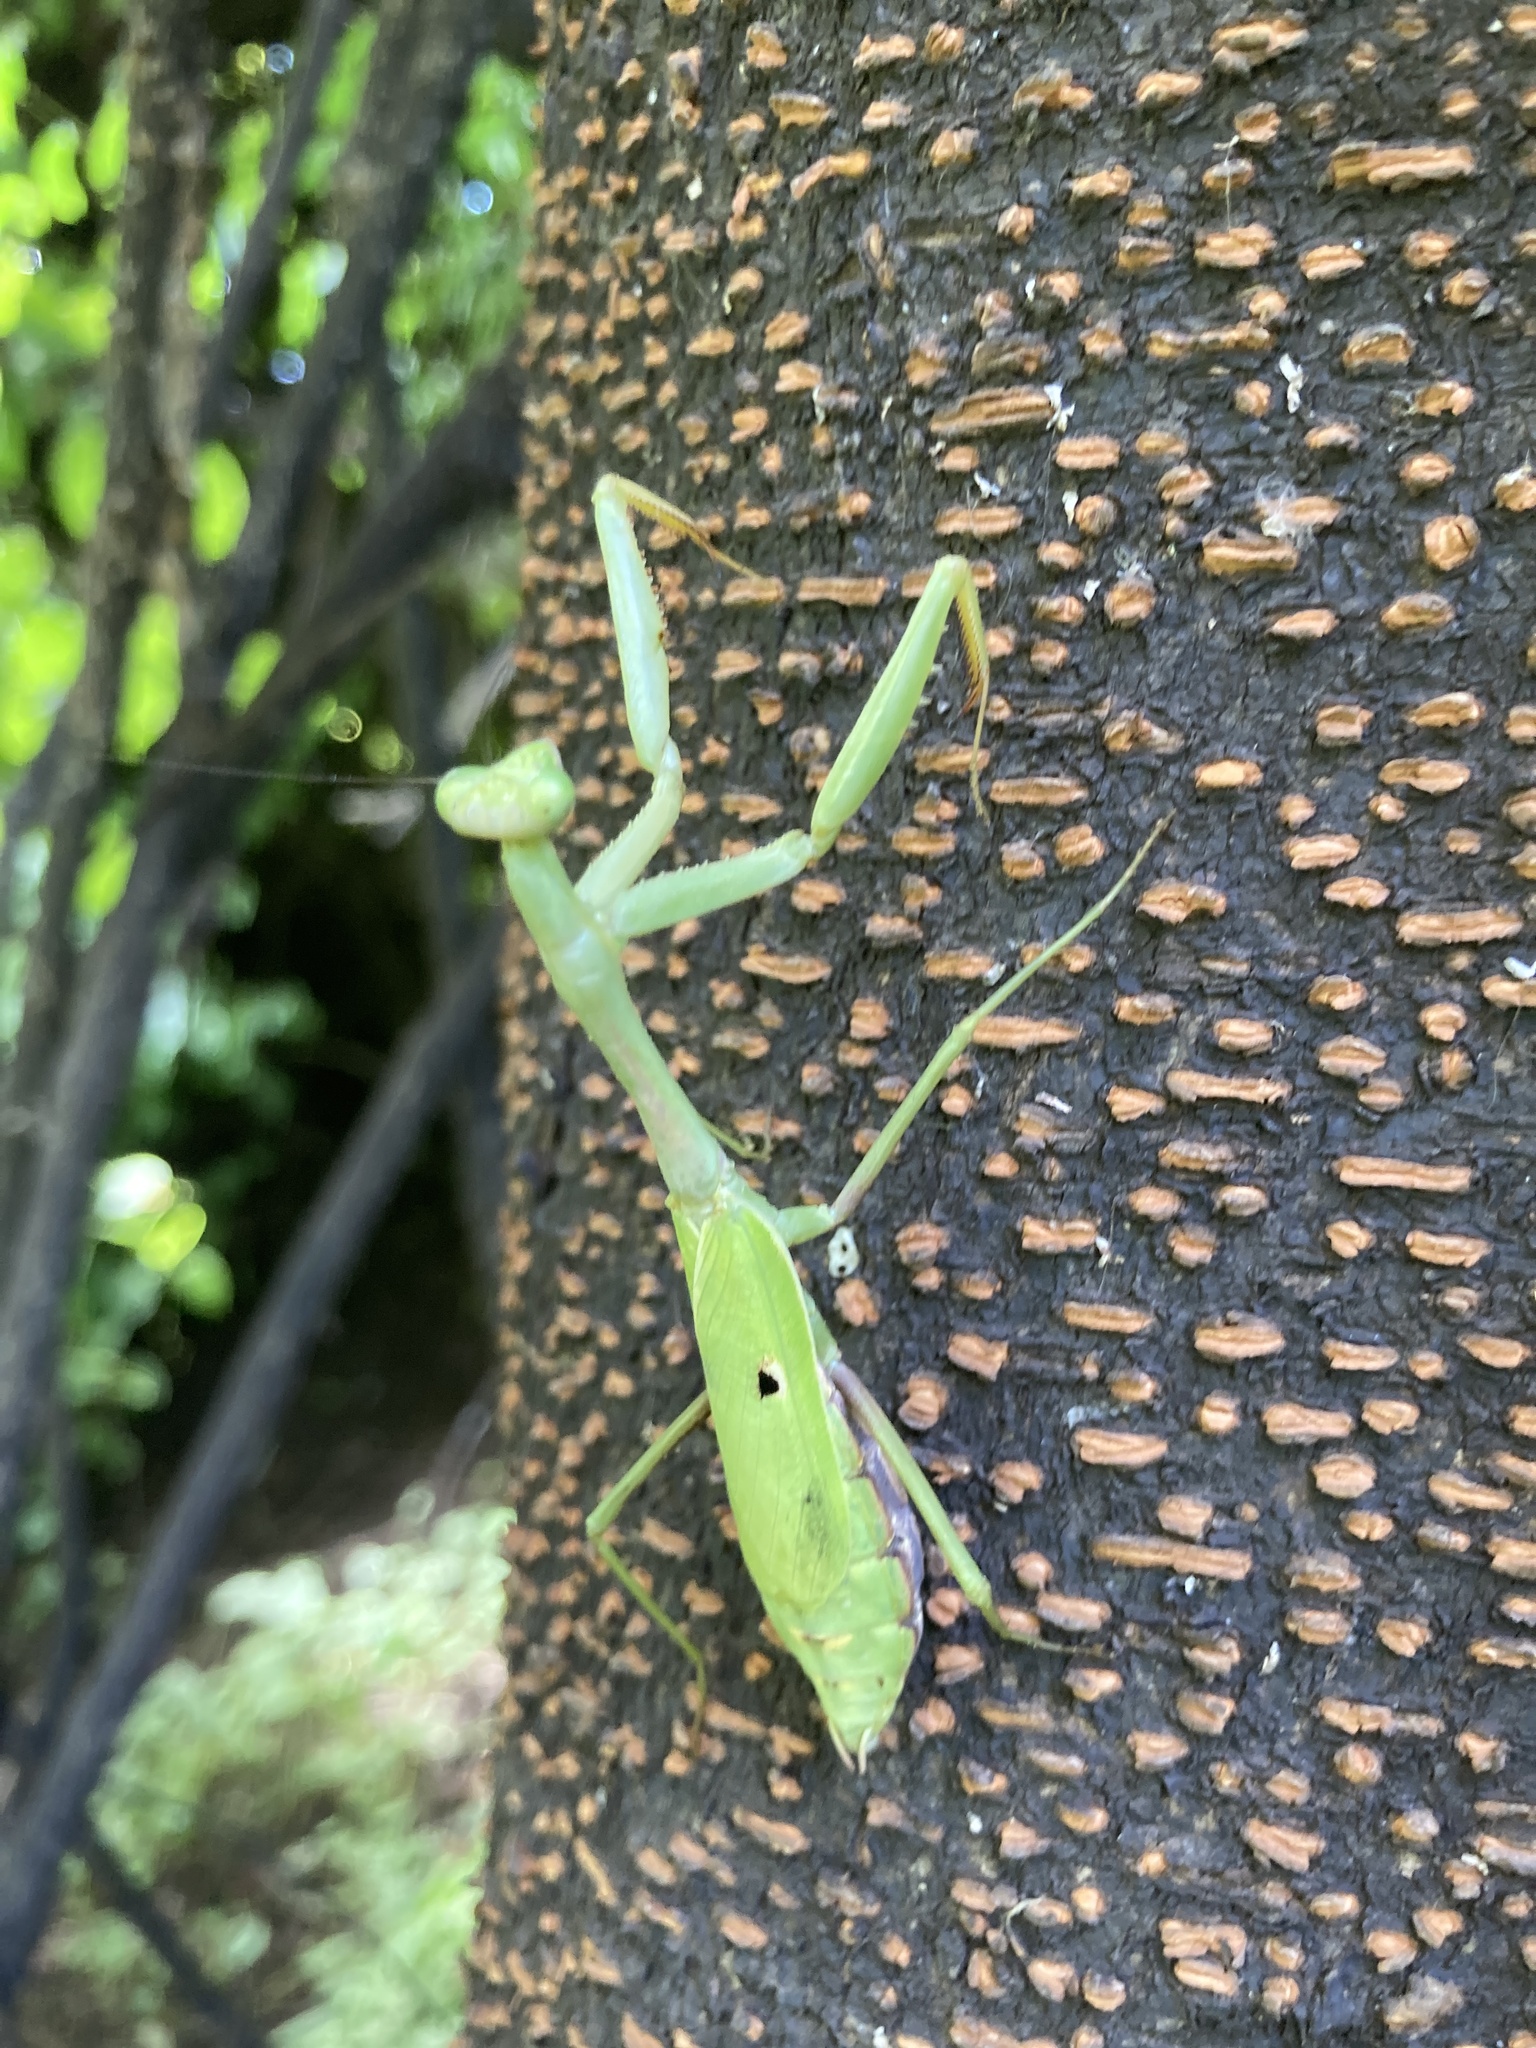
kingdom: Animalia
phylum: Arthropoda
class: Insecta
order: Mantodea
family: Mantidae
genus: Stagmomantis
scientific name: Stagmomantis carolina
